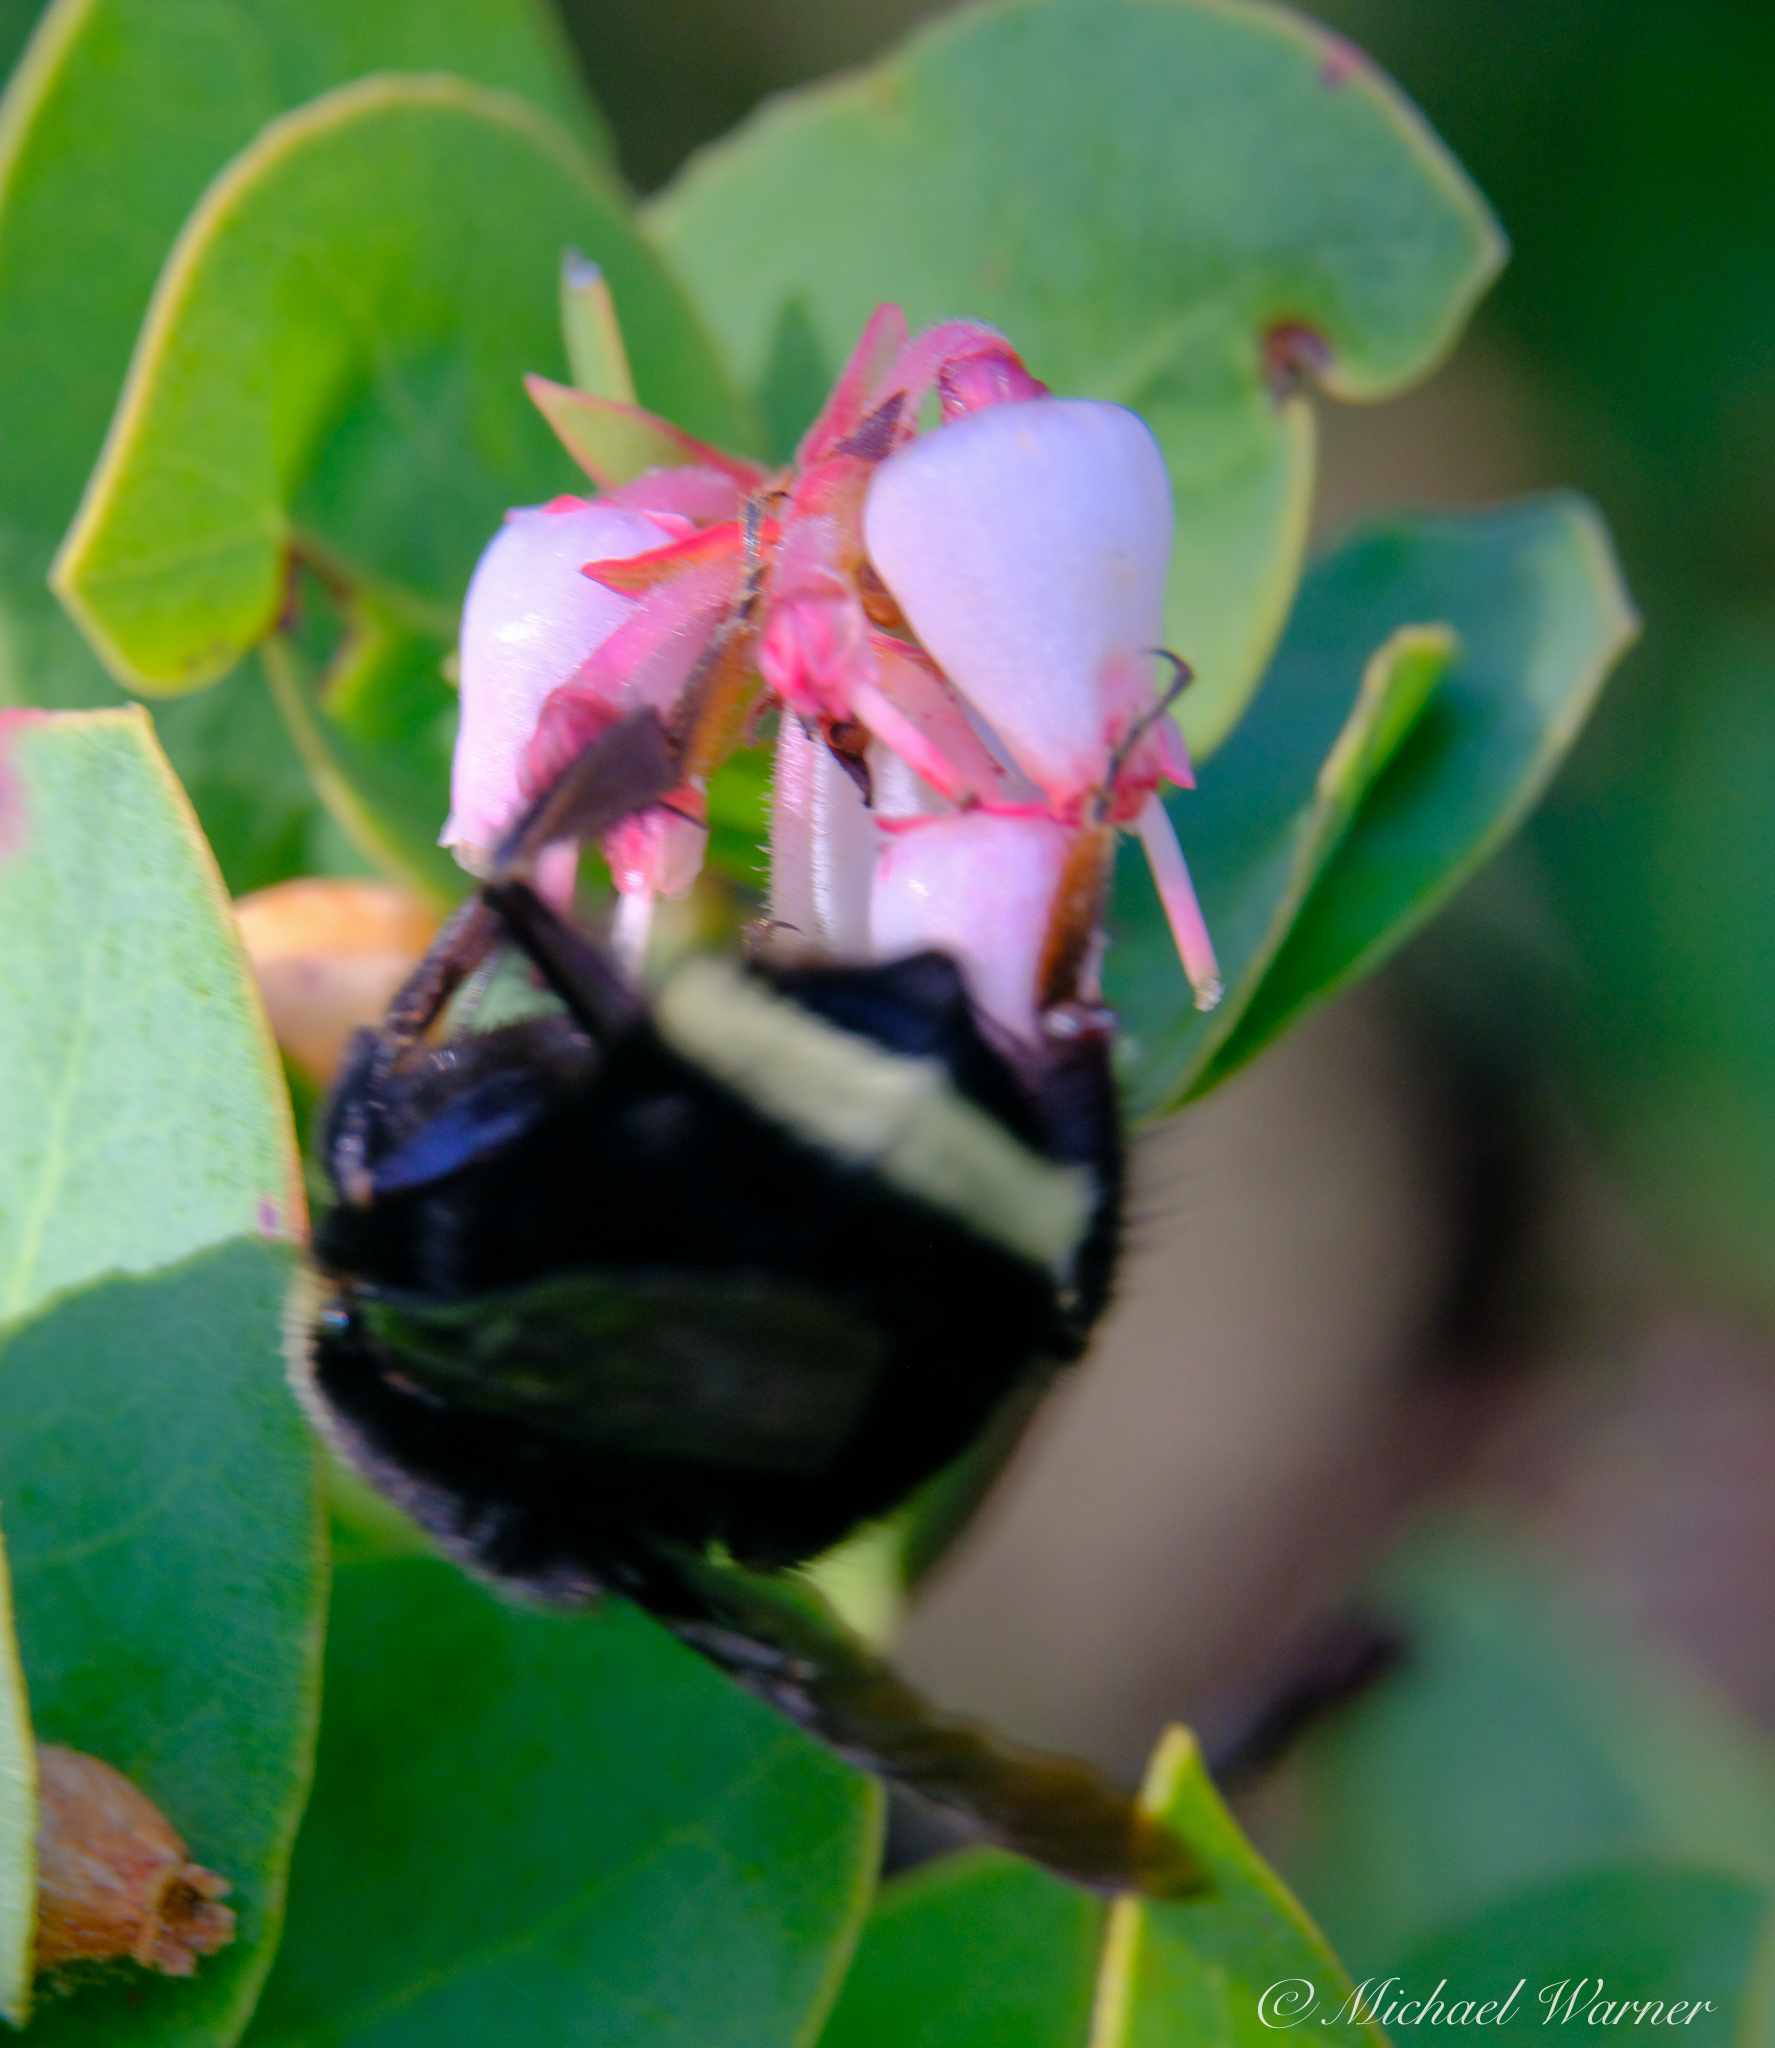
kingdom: Animalia
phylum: Arthropoda
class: Insecta
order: Hymenoptera
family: Apidae
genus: Bombus
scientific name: Bombus
